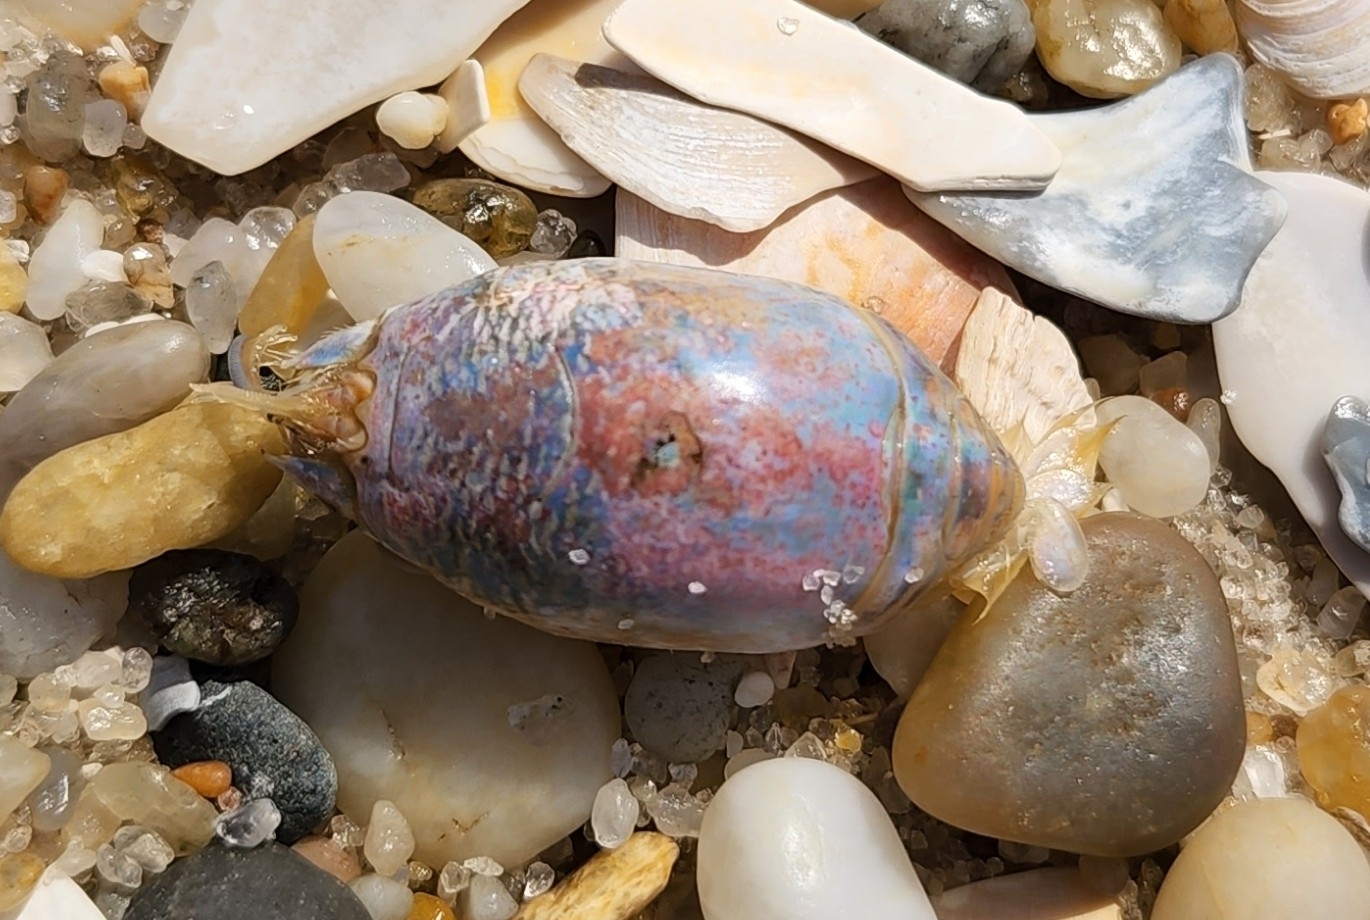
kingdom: Animalia
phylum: Arthropoda
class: Malacostraca
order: Decapoda
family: Hippidae
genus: Emerita
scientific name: Emerita talpoida
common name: Atlantic sand crab
